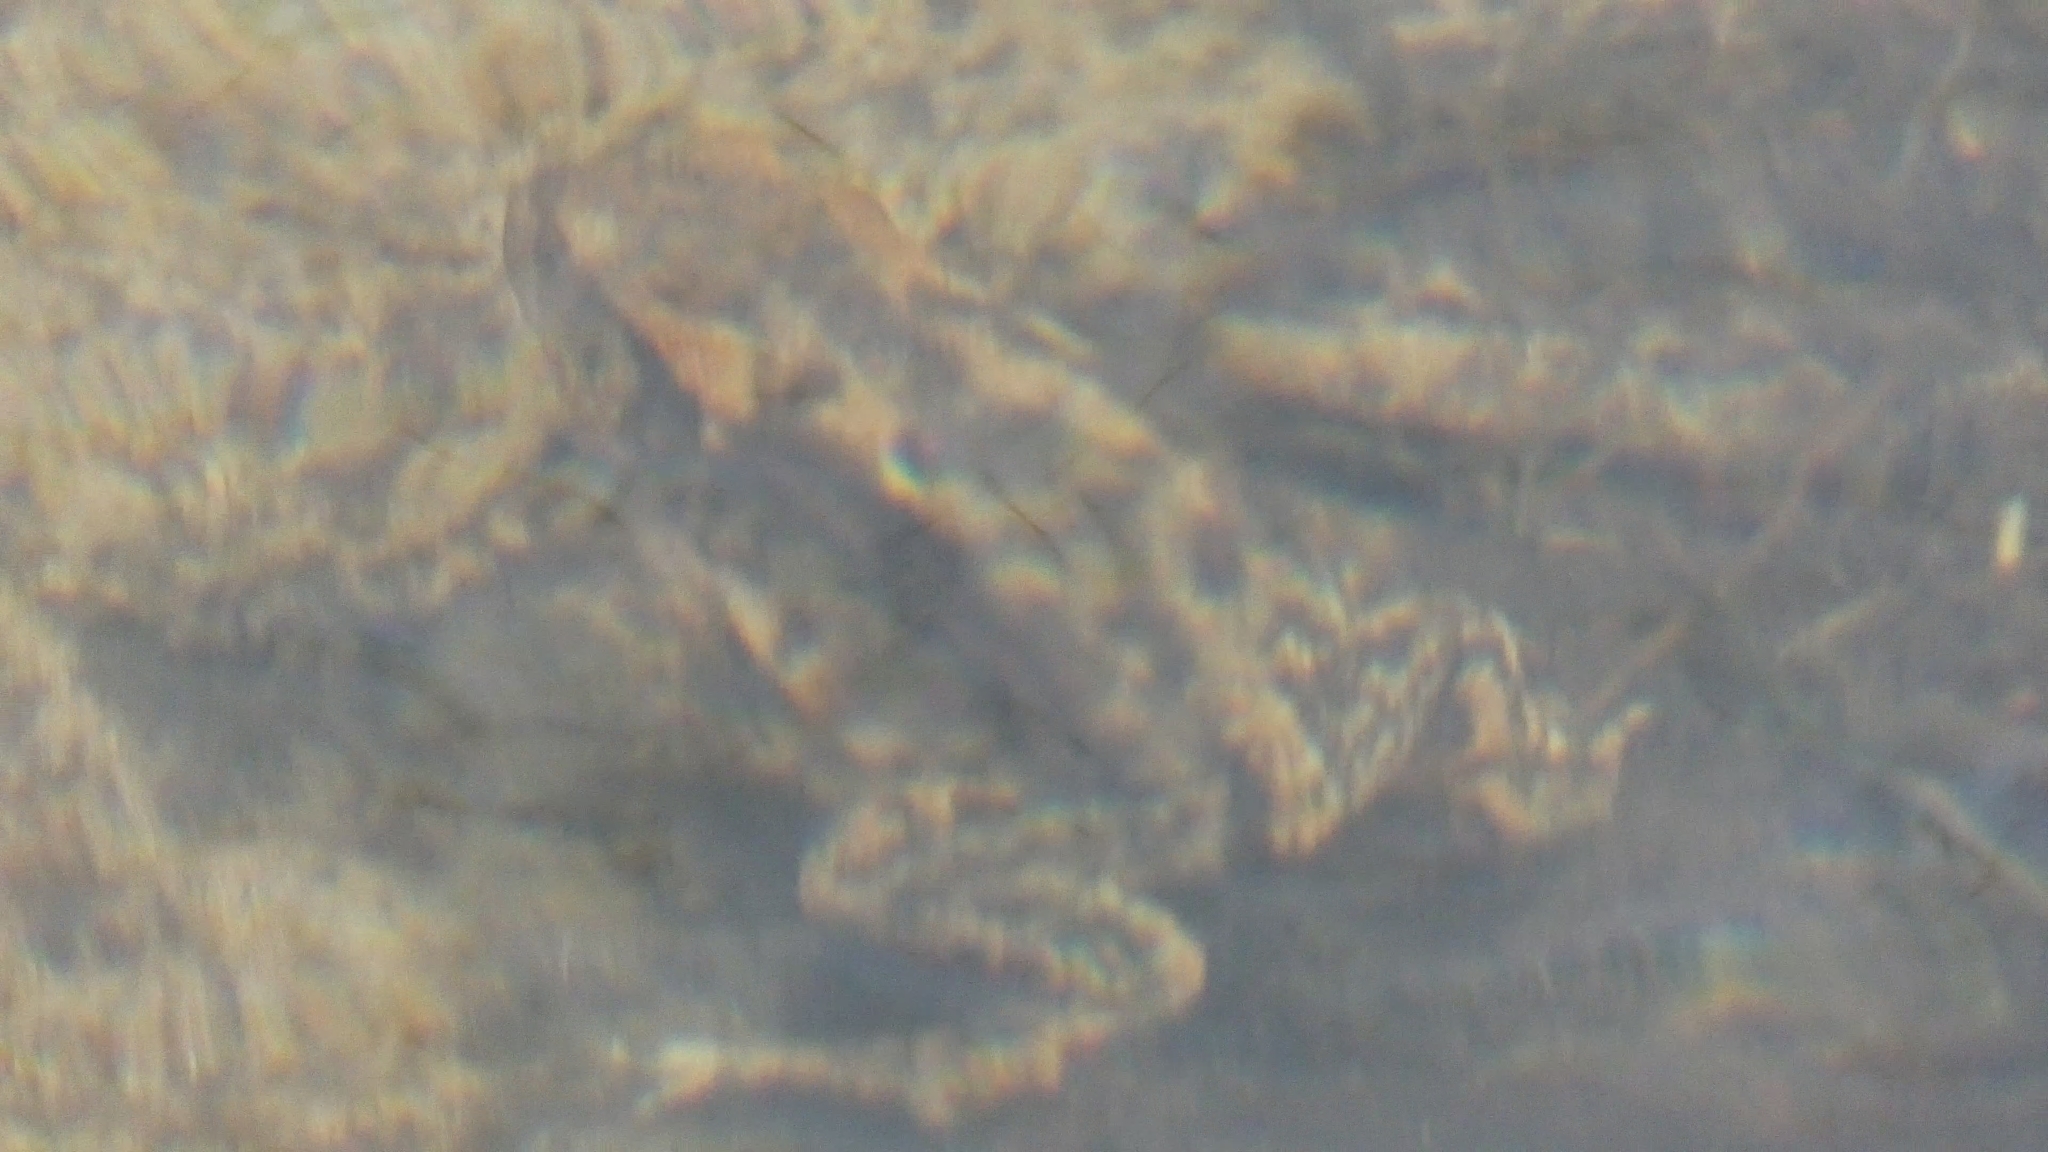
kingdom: Animalia
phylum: Chordata
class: Amphibia
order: Anura
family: Bufonidae
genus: Bufo
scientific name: Bufo bufo
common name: Common toad
